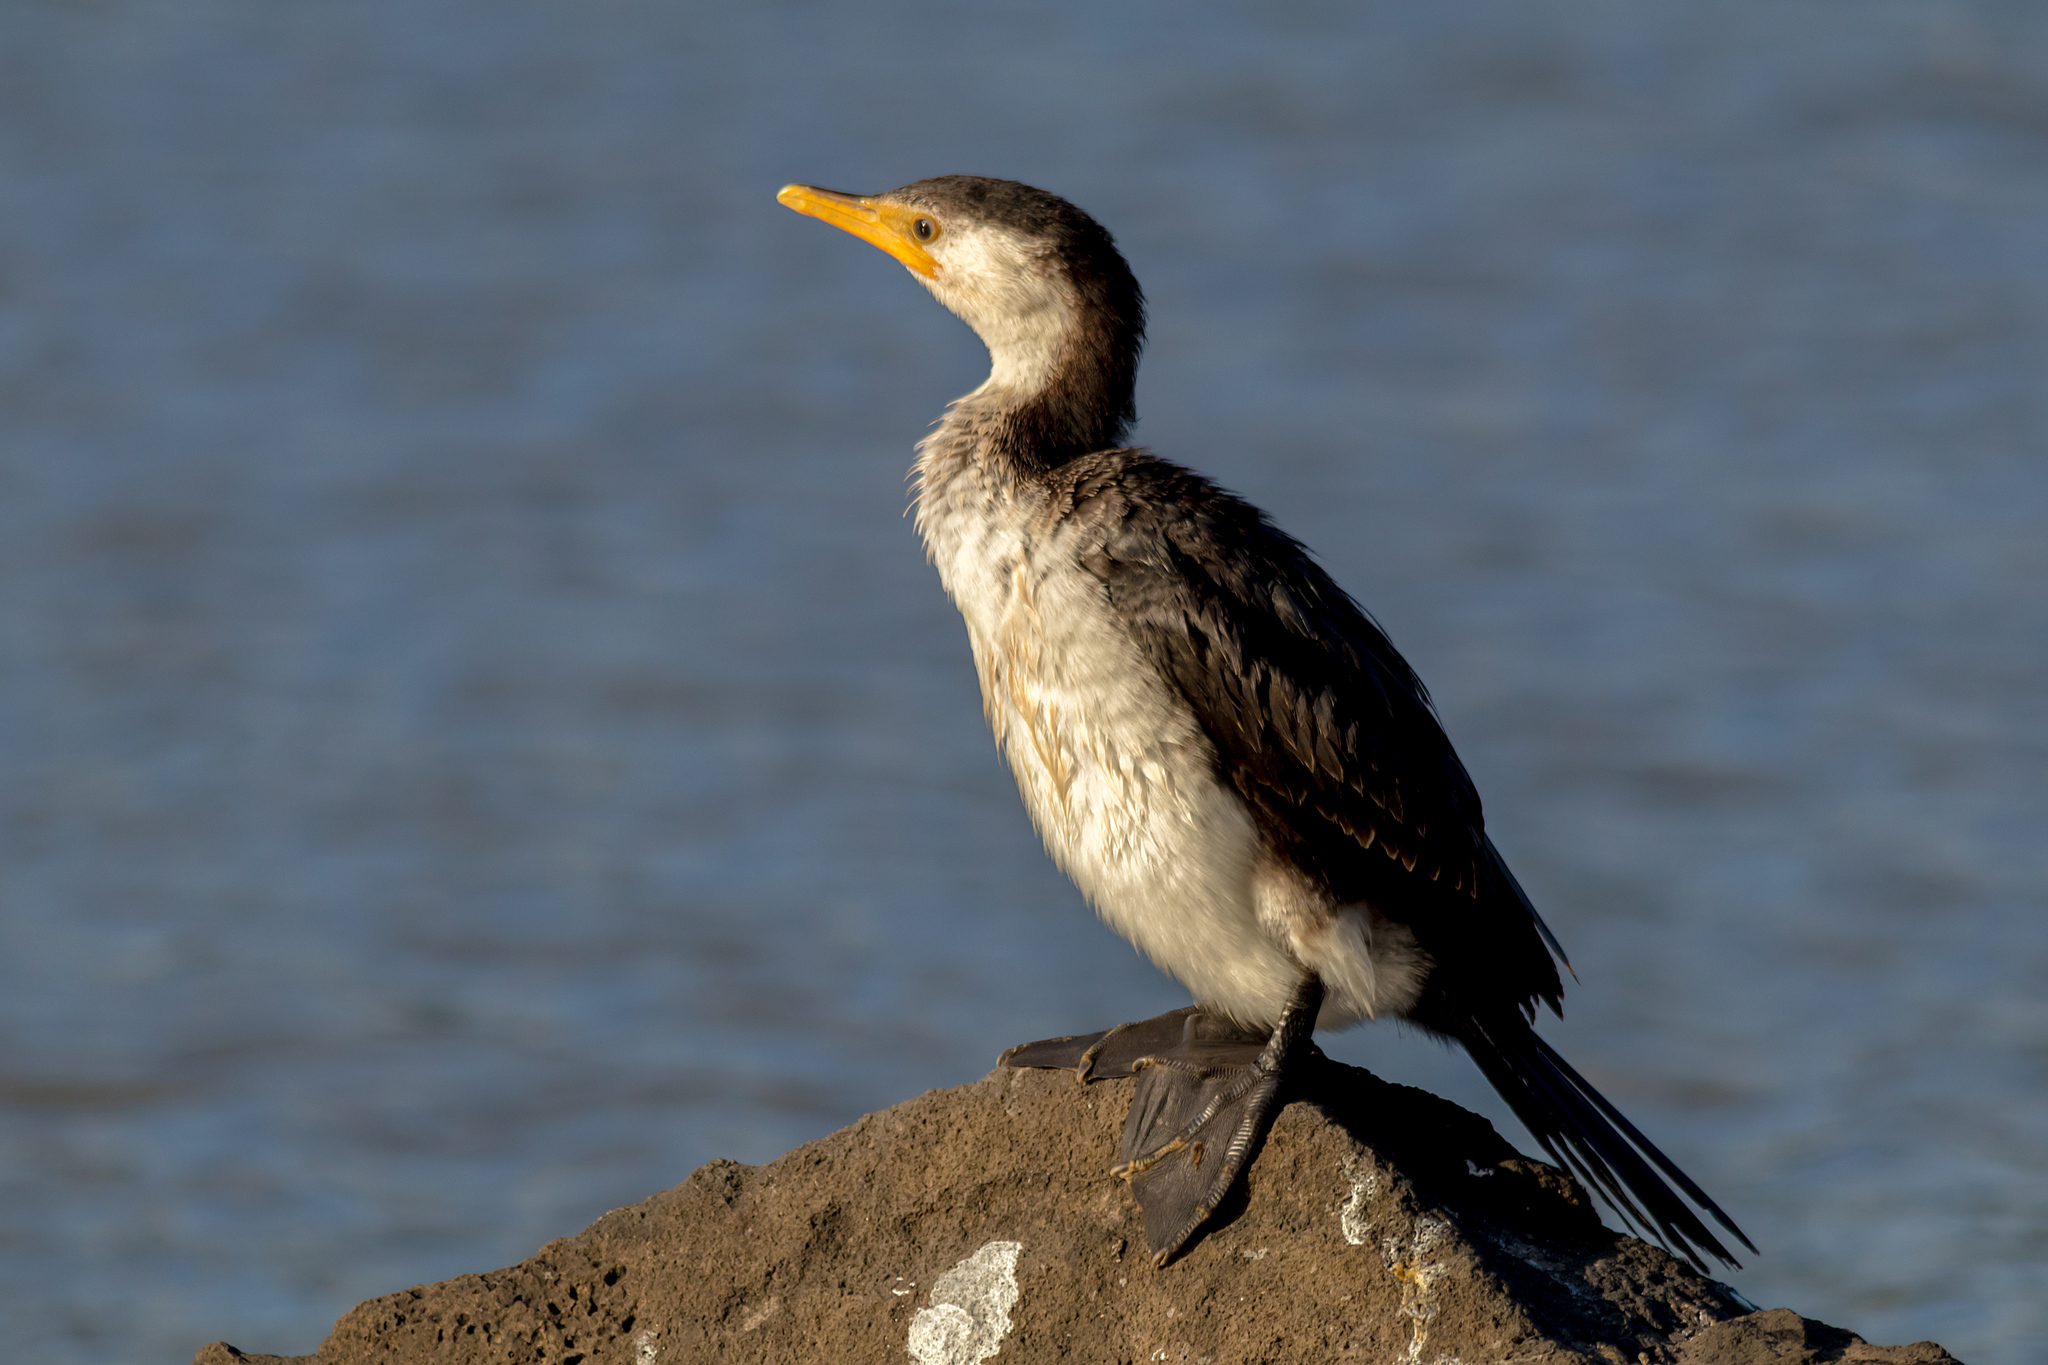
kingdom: Animalia
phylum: Chordata
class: Aves
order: Suliformes
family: Phalacrocoracidae
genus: Microcarbo
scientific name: Microcarbo melanoleucos
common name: Little pied cormorant
